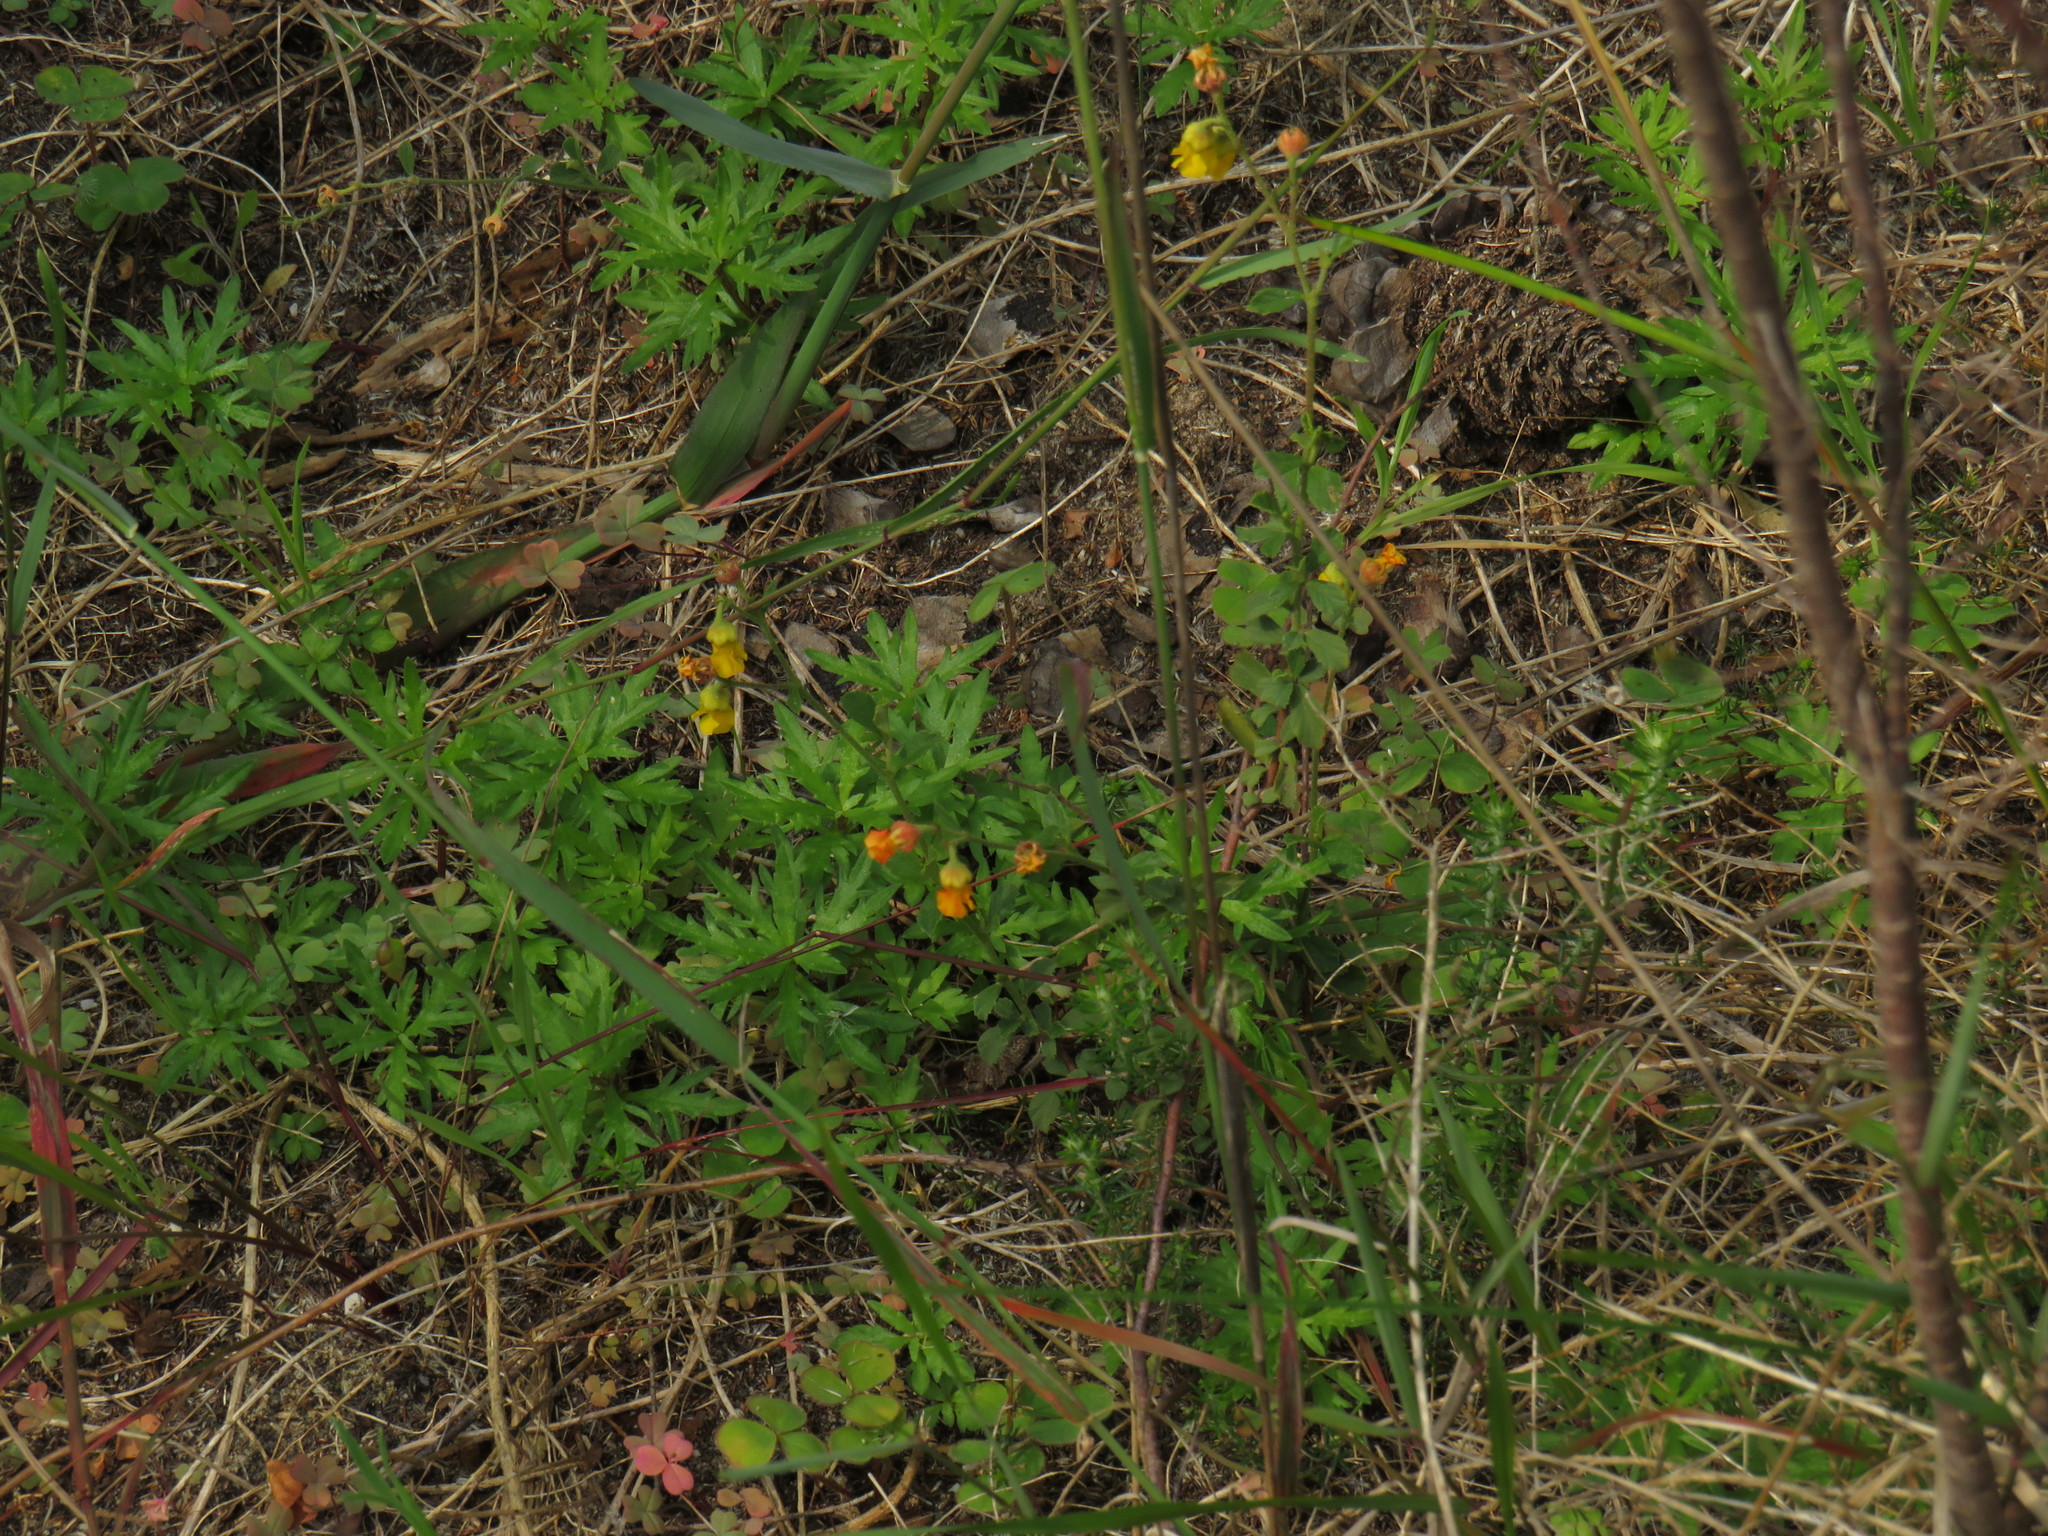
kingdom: Plantae
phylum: Tracheophyta
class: Magnoliopsida
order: Malvales
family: Malvaceae
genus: Hermannia
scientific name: Hermannia multiflora
